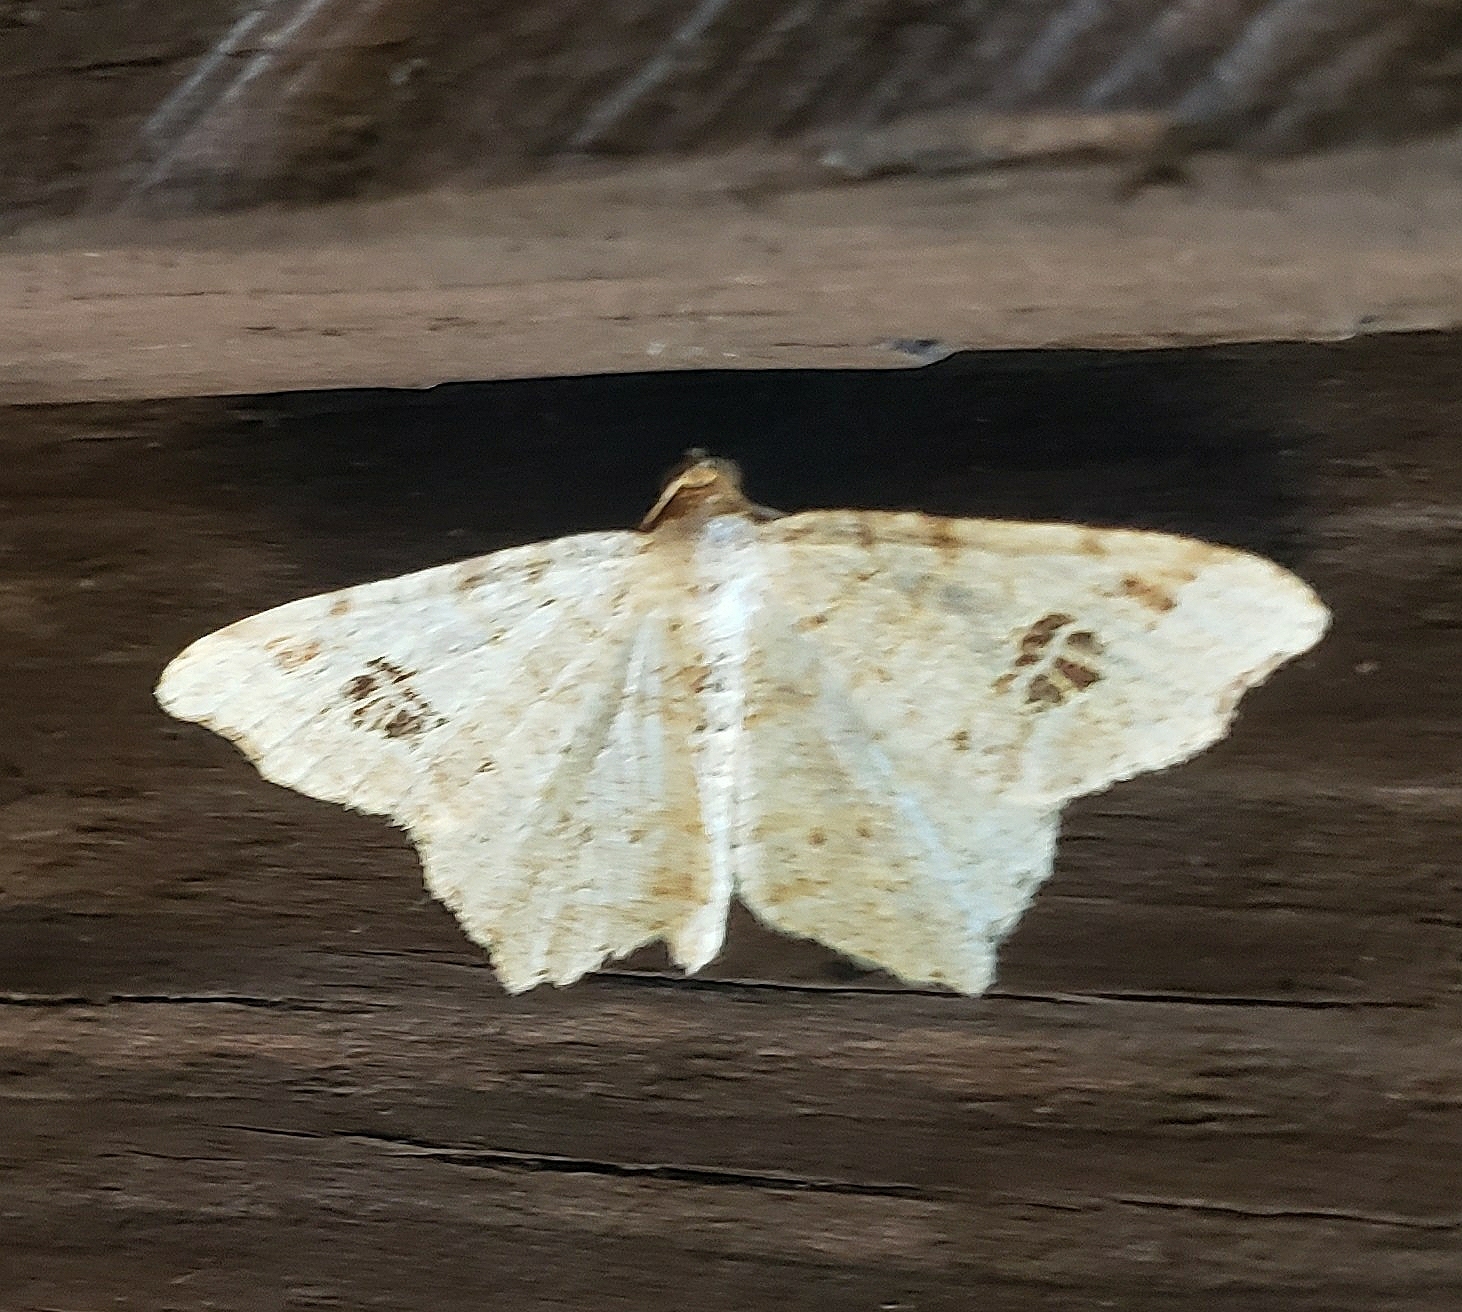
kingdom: Animalia
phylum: Arthropoda
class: Insecta
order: Lepidoptera
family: Geometridae
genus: Macaria
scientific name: Macaria aemulataria
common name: Common angle
